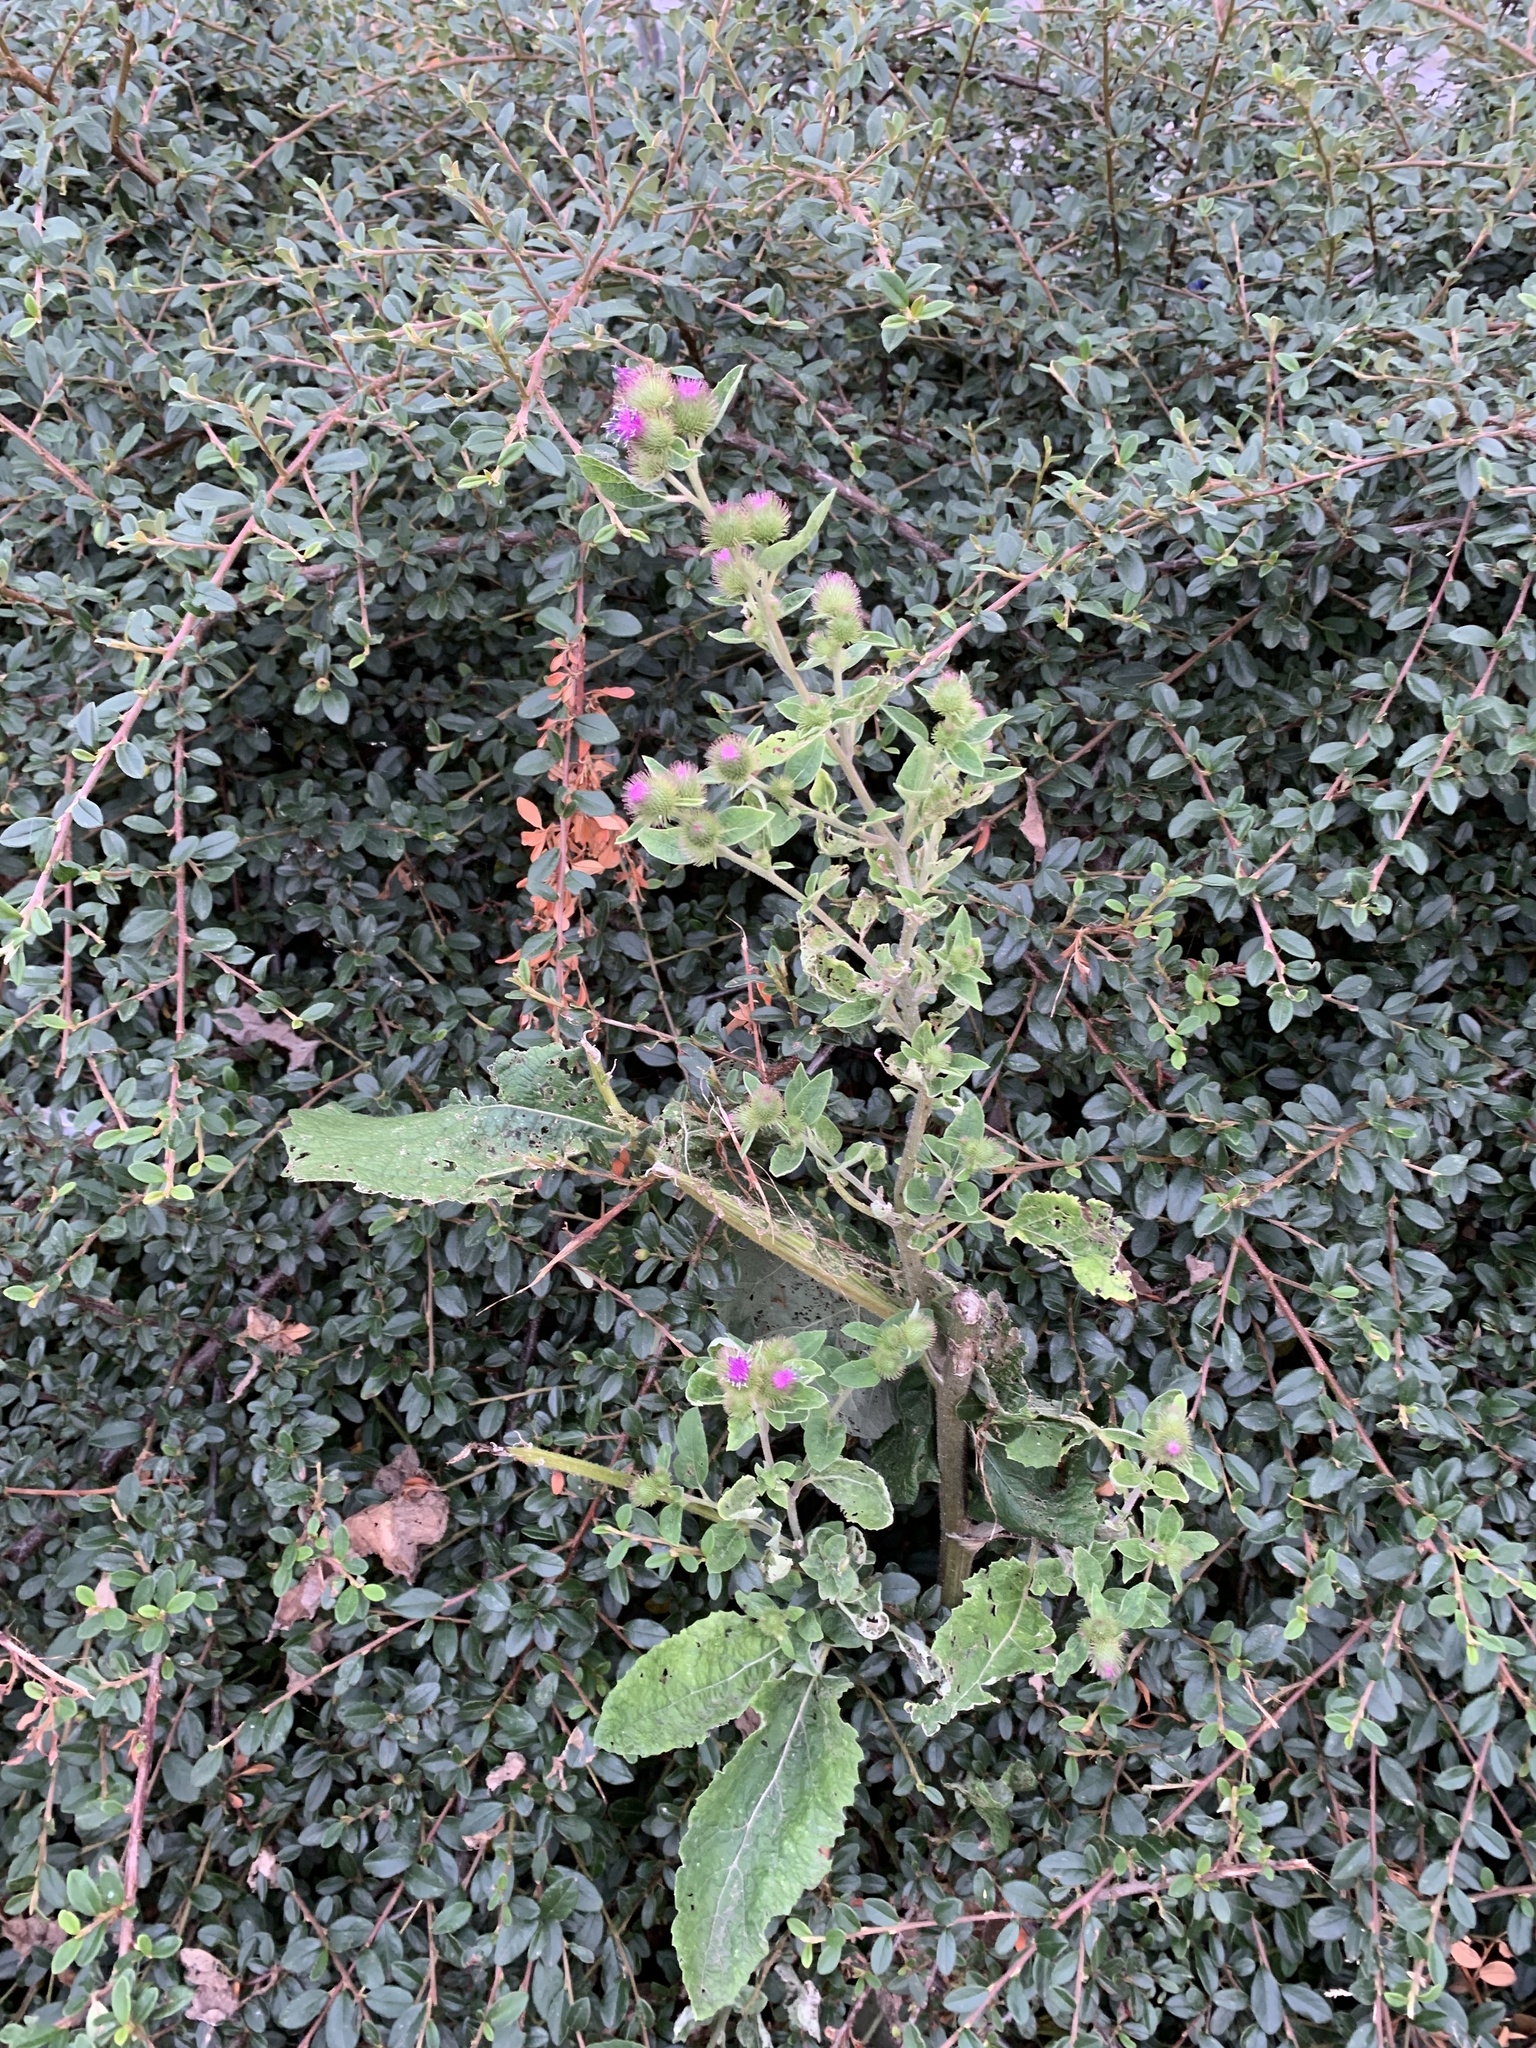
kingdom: Plantae
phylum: Tracheophyta
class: Magnoliopsida
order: Asterales
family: Asteraceae
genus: Arctium
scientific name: Arctium minus
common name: Lesser burdock
